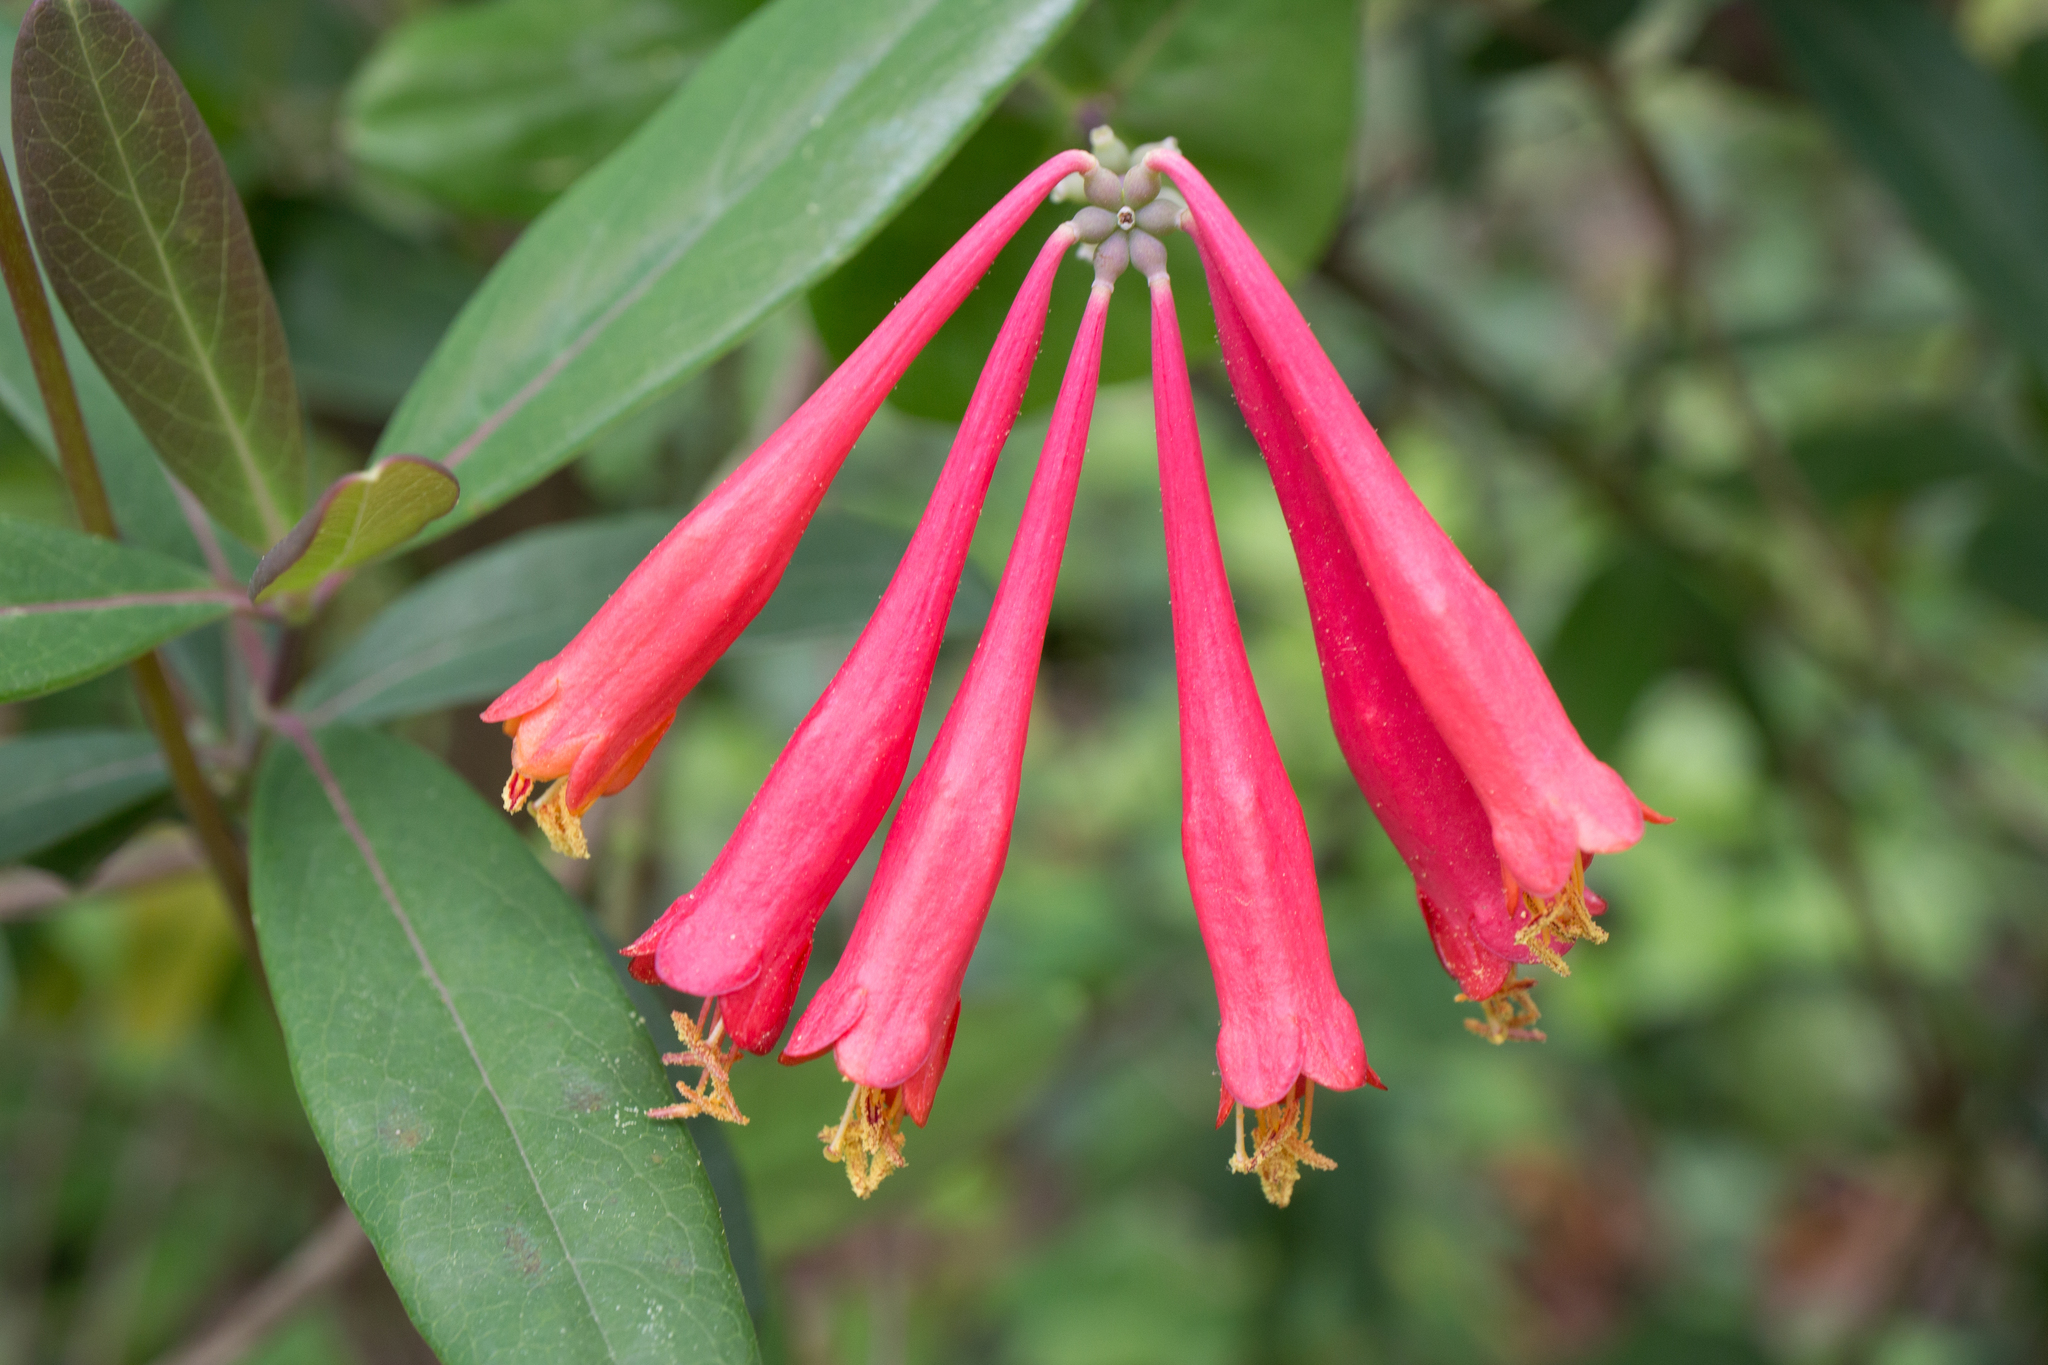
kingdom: Plantae
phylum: Tracheophyta
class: Magnoliopsida
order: Dipsacales
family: Caprifoliaceae
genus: Lonicera
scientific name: Lonicera sempervirens
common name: Coral honeysuckle
